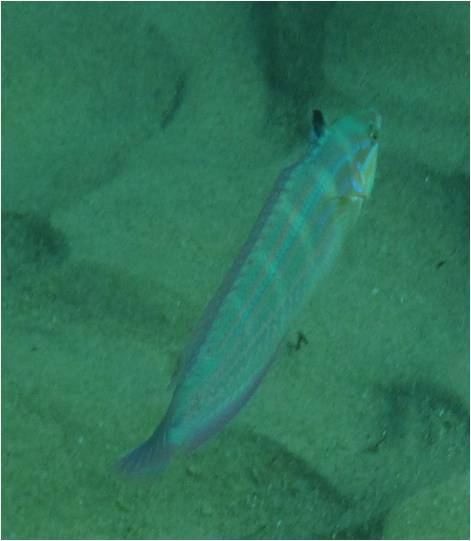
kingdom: Animalia
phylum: Chordata
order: Perciformes
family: Labridae
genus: Coris
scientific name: Coris caudimacula
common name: Spottail coris
